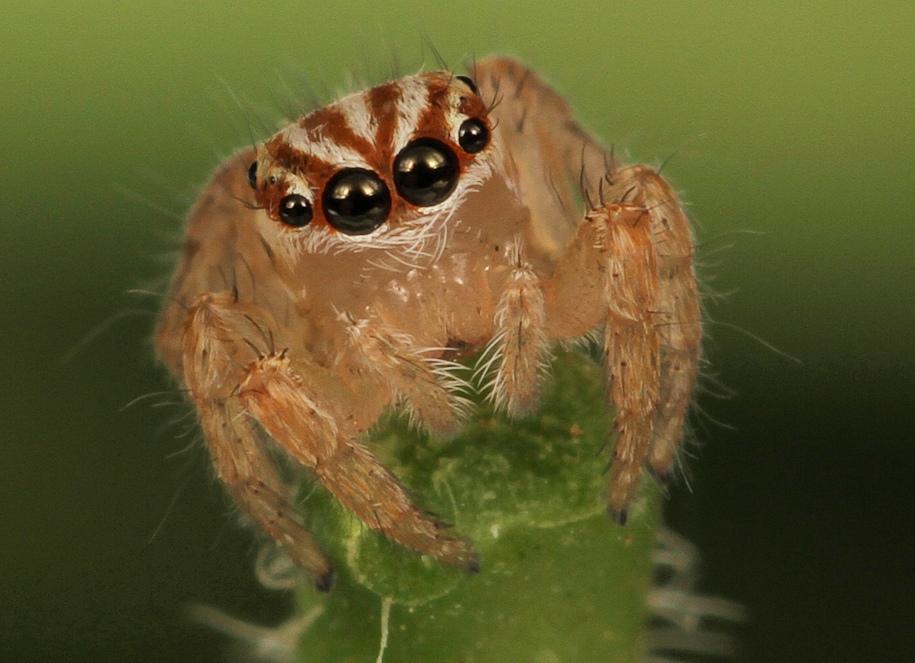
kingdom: Animalia
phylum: Arthropoda
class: Arachnida
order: Araneae
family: Salticidae
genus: Evarcha
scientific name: Evarcha flagellaris
